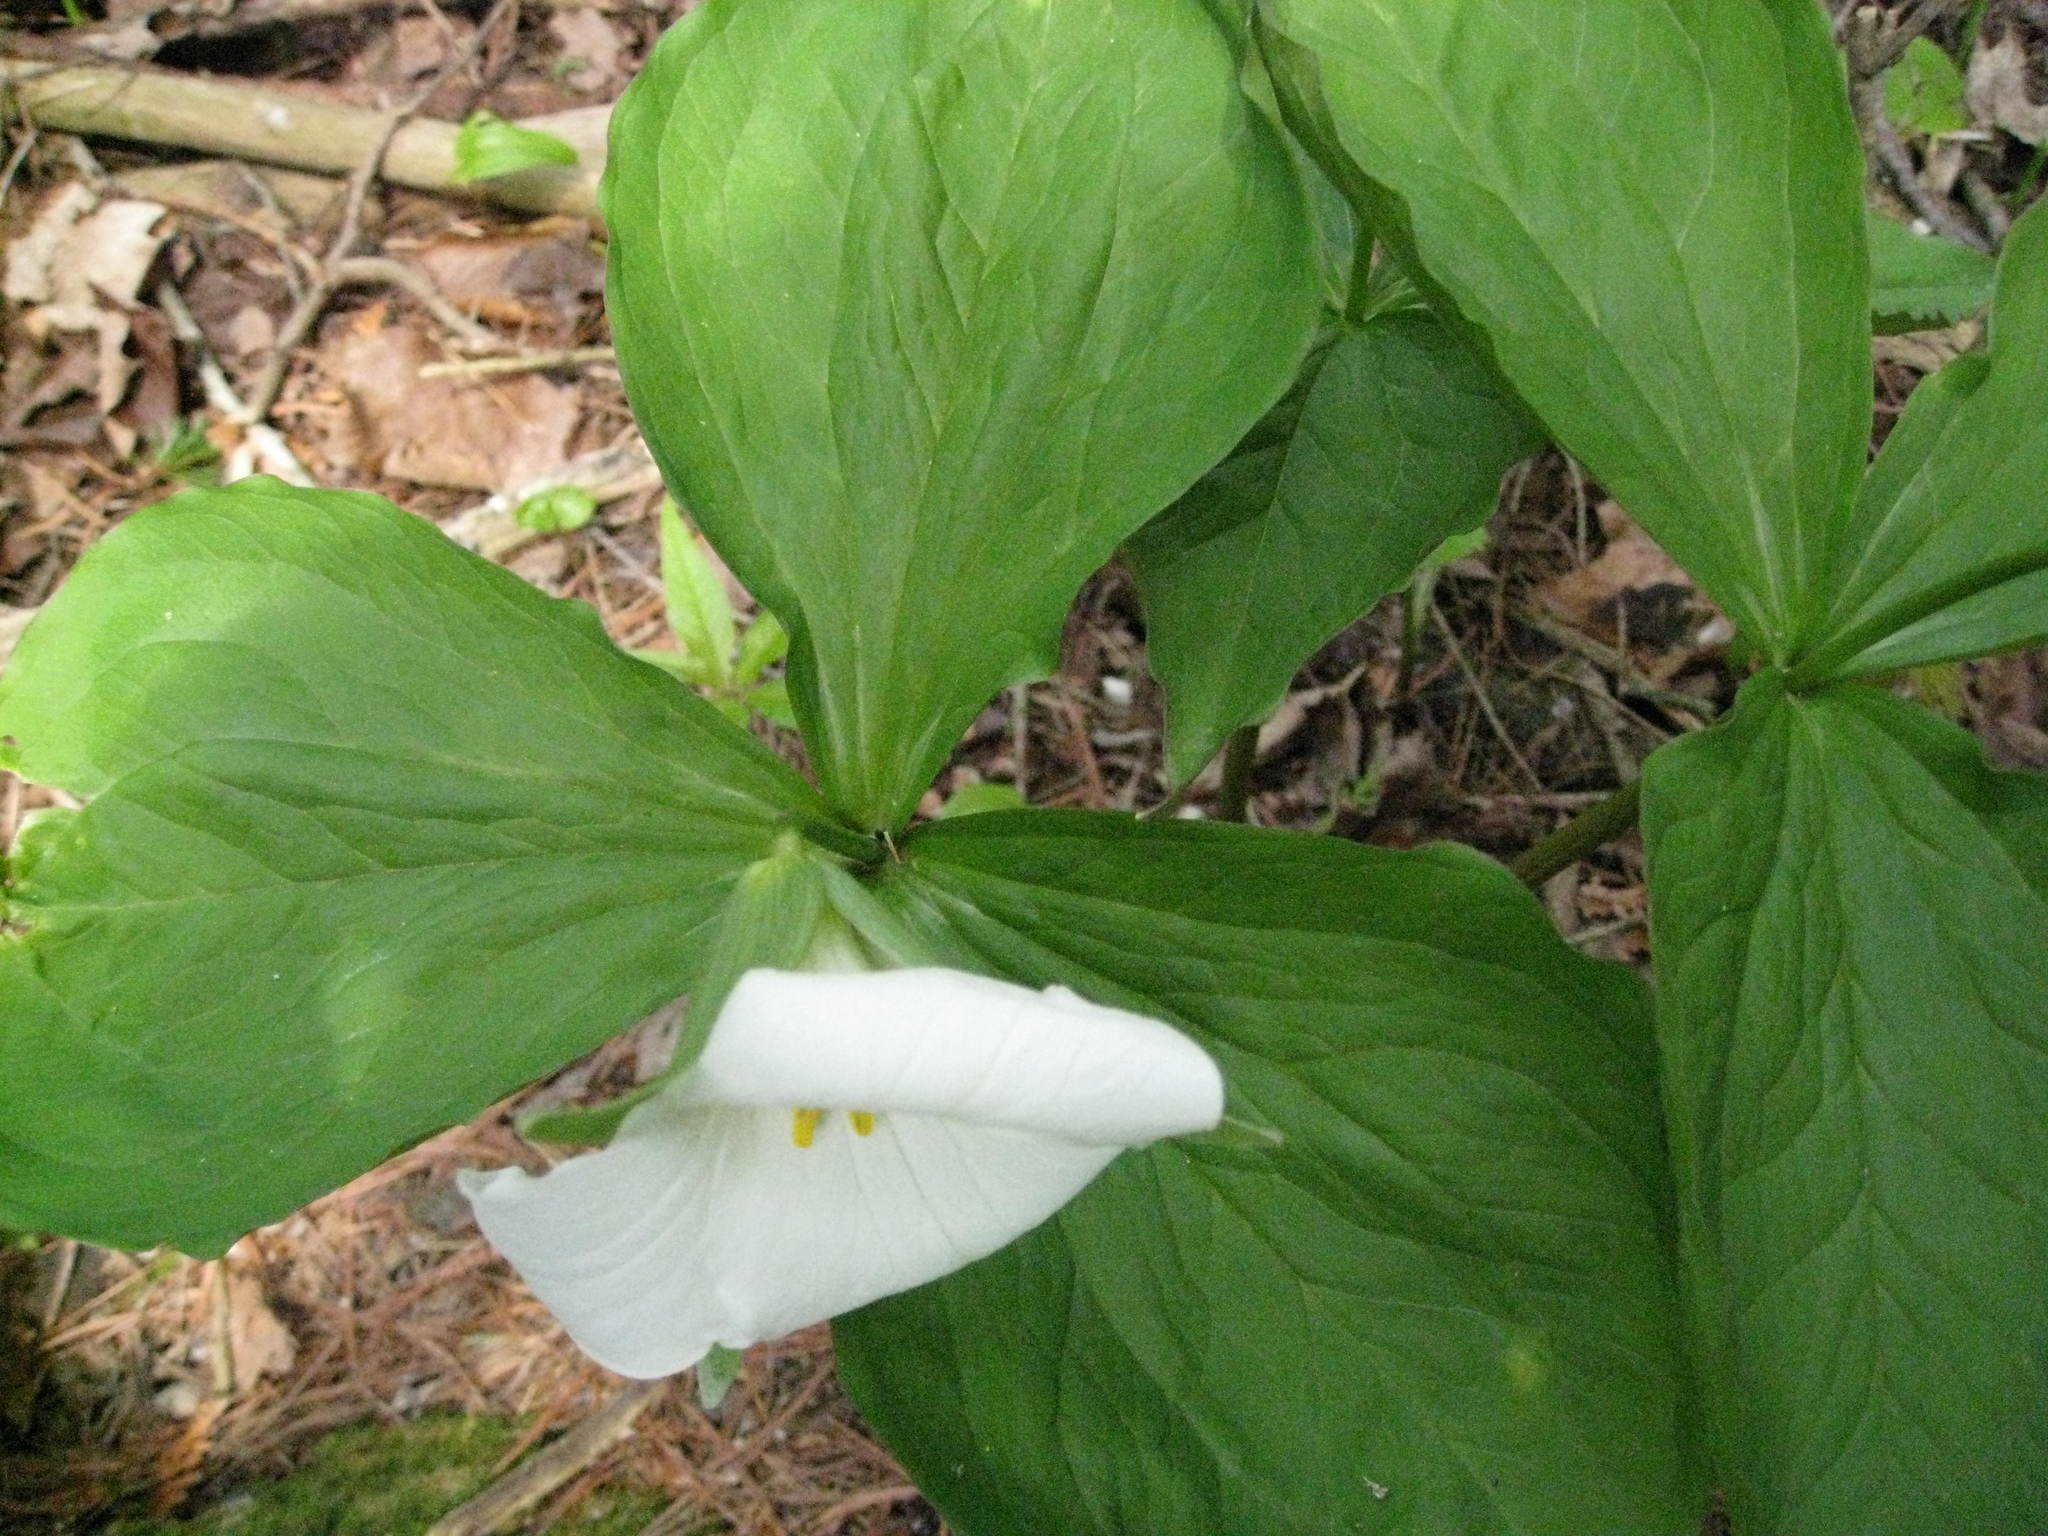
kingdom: Plantae
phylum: Tracheophyta
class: Liliopsida
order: Liliales
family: Melanthiaceae
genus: Trillium
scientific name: Trillium grandiflorum
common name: Great white trillium
